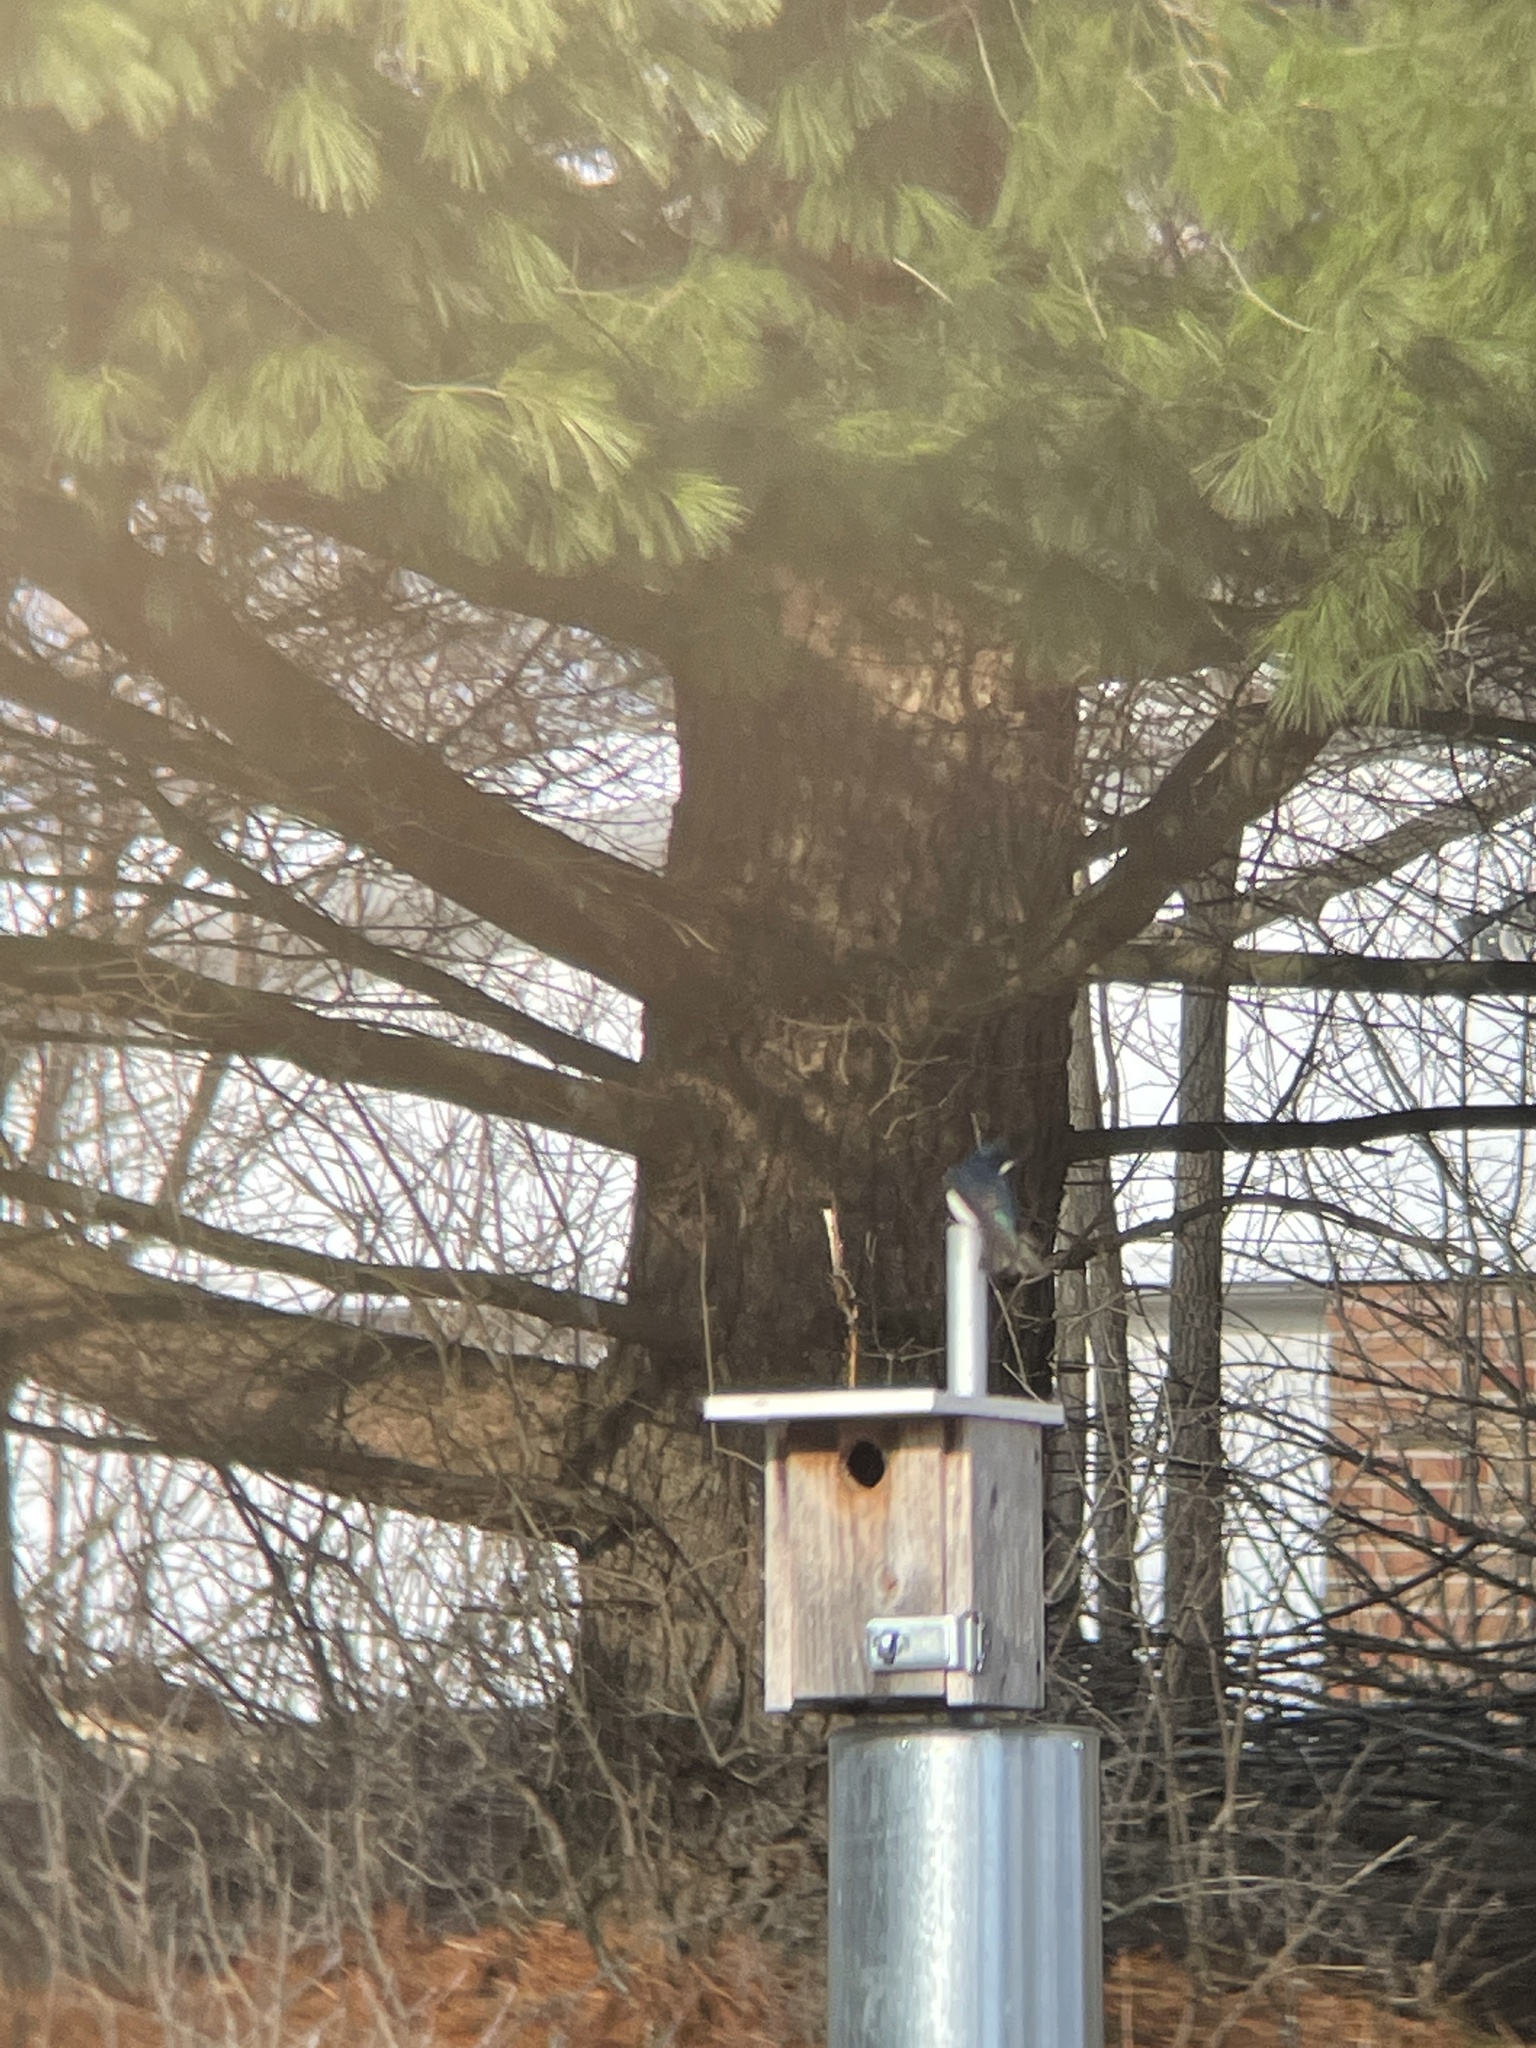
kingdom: Animalia
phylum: Chordata
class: Aves
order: Passeriformes
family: Hirundinidae
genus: Tachycineta
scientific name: Tachycineta bicolor
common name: Tree swallow
